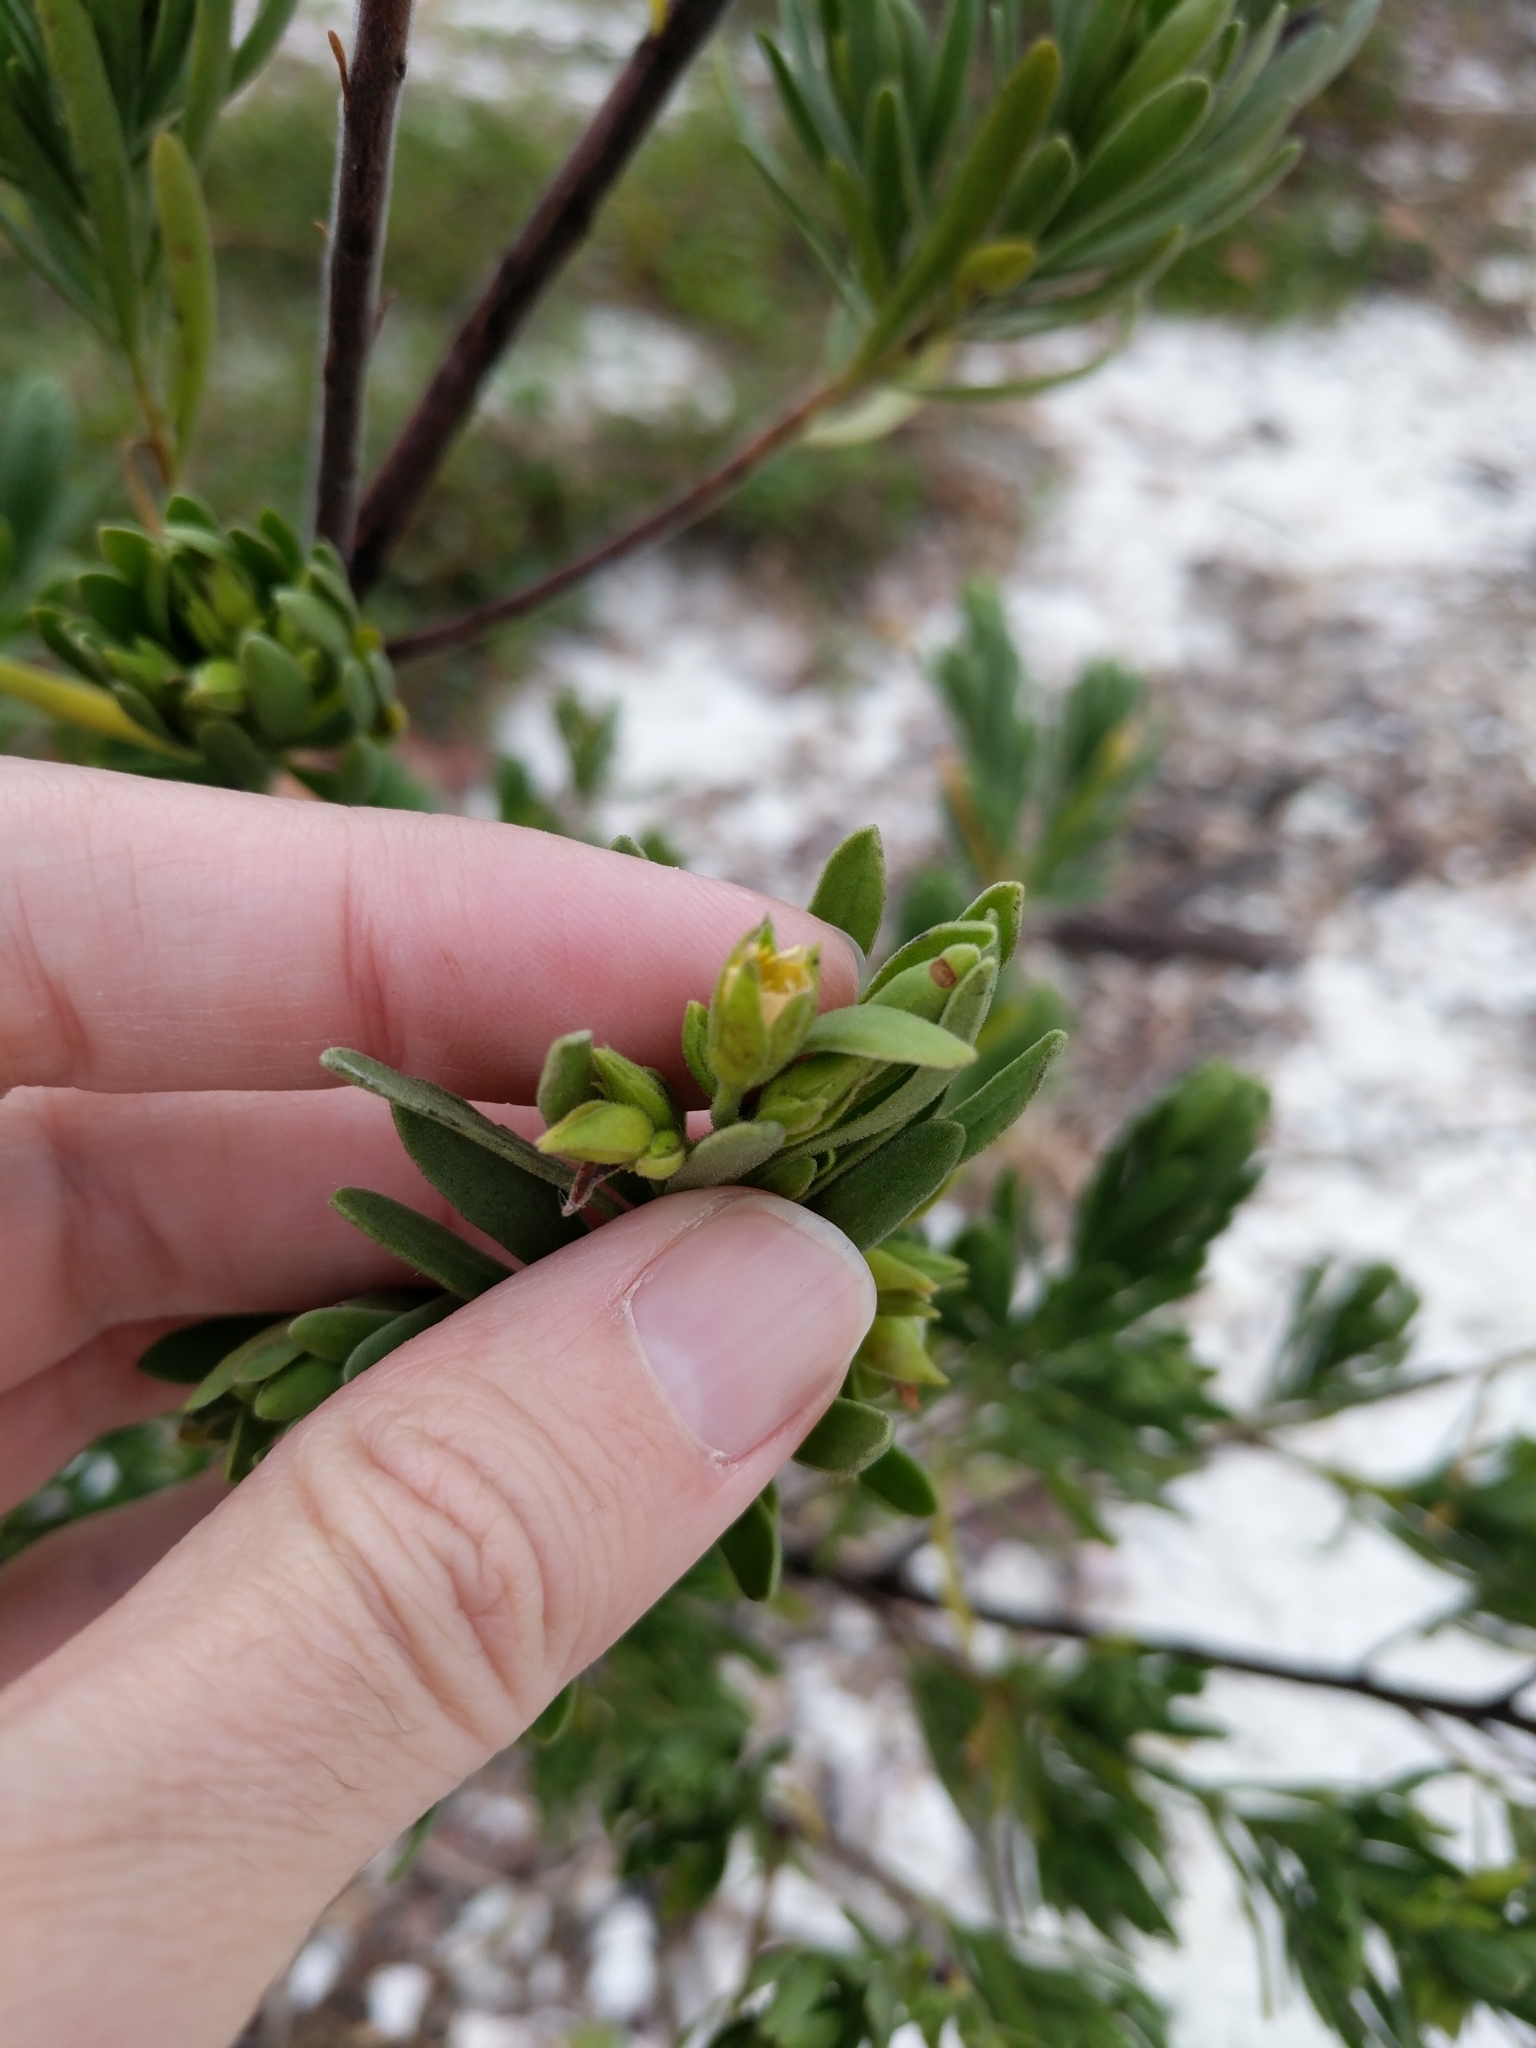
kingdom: Plantae
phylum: Tracheophyta
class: Magnoliopsida
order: Fabales
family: Surianaceae
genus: Suriana
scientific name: Suriana maritima
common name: Bay-cedar
